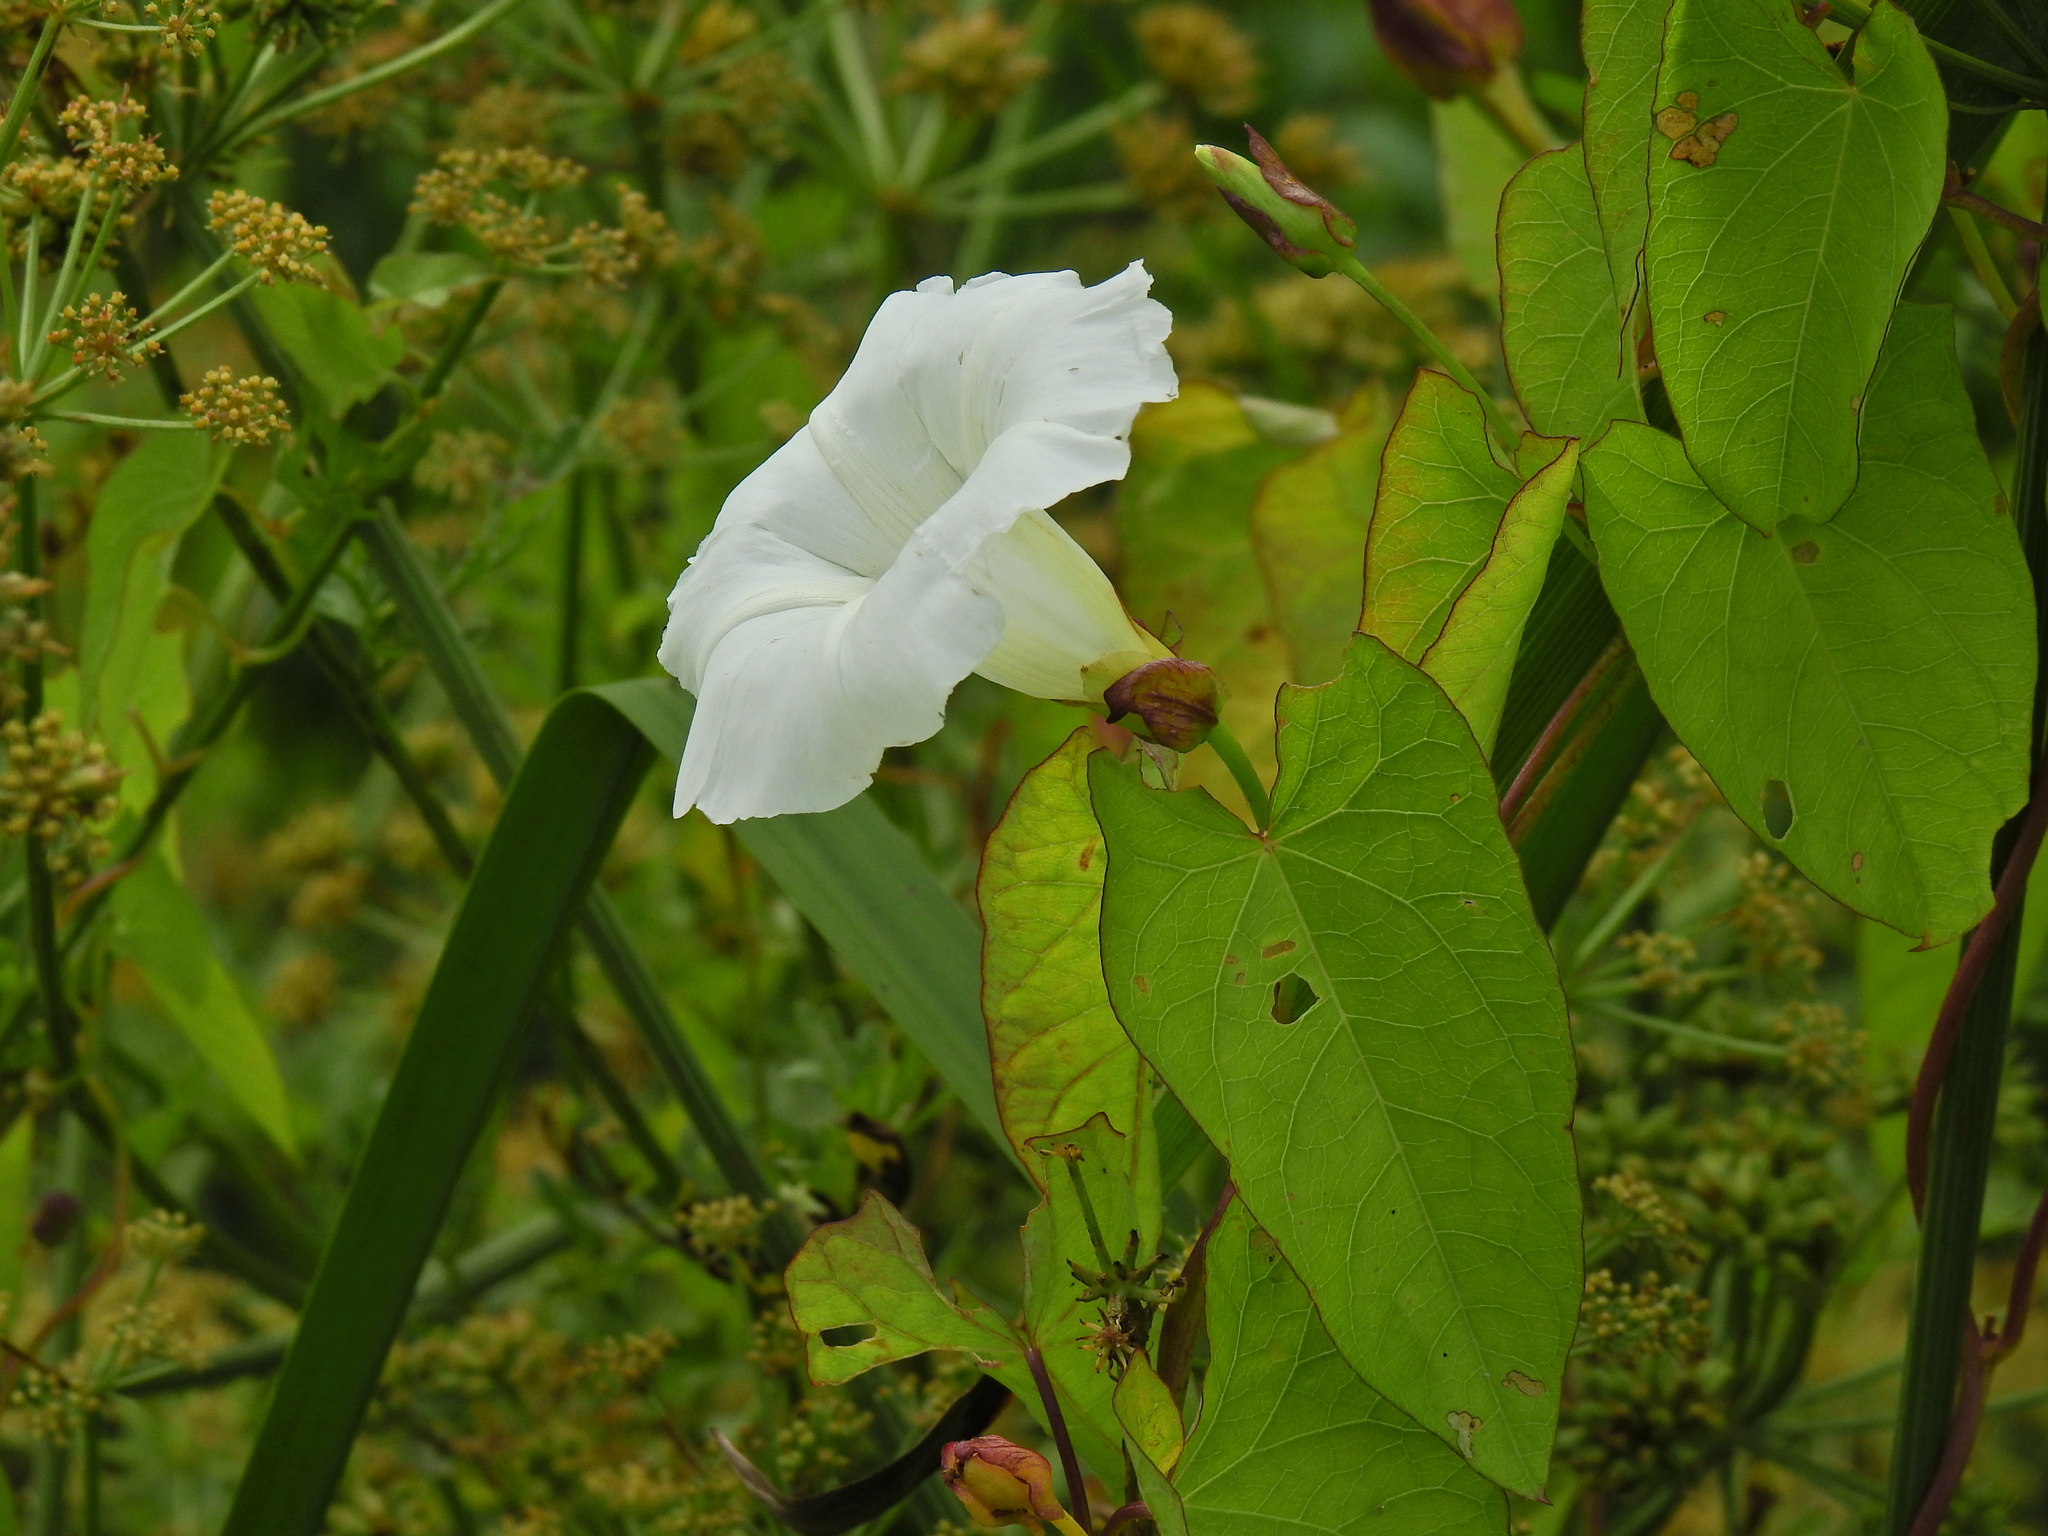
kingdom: Plantae
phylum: Tracheophyta
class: Magnoliopsida
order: Solanales
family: Convolvulaceae
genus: Calystegia
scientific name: Calystegia sepium
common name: Hedge bindweed
